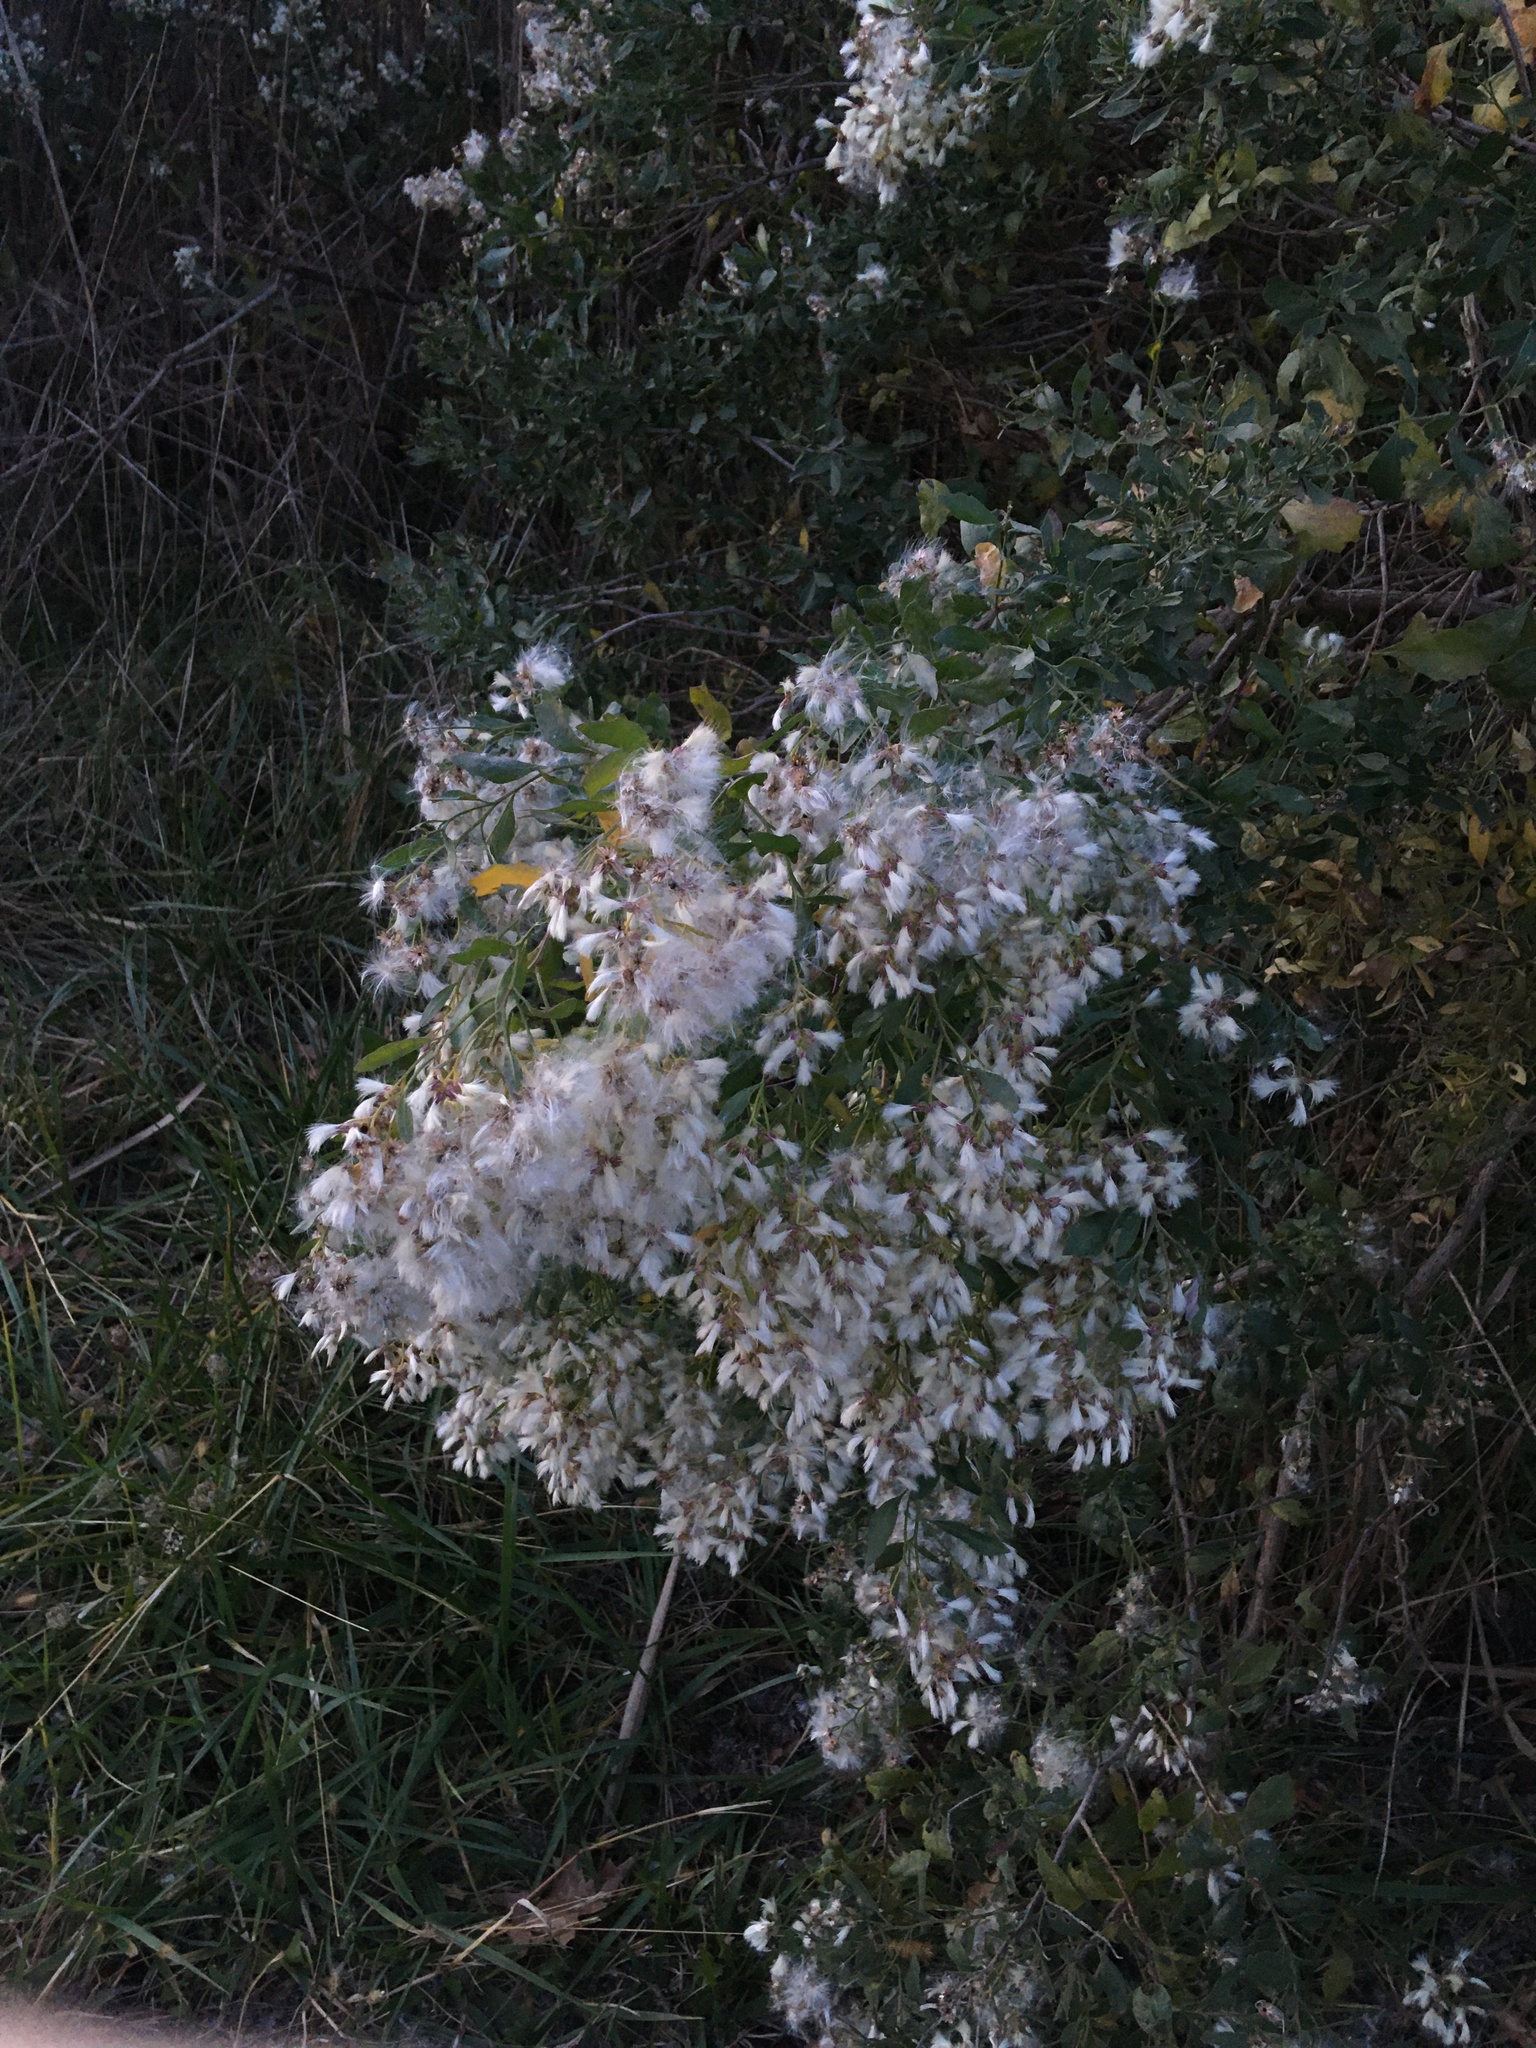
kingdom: Plantae
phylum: Tracheophyta
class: Magnoliopsida
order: Asterales
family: Asteraceae
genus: Baccharis
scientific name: Baccharis halimifolia
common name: Eastern baccharis
